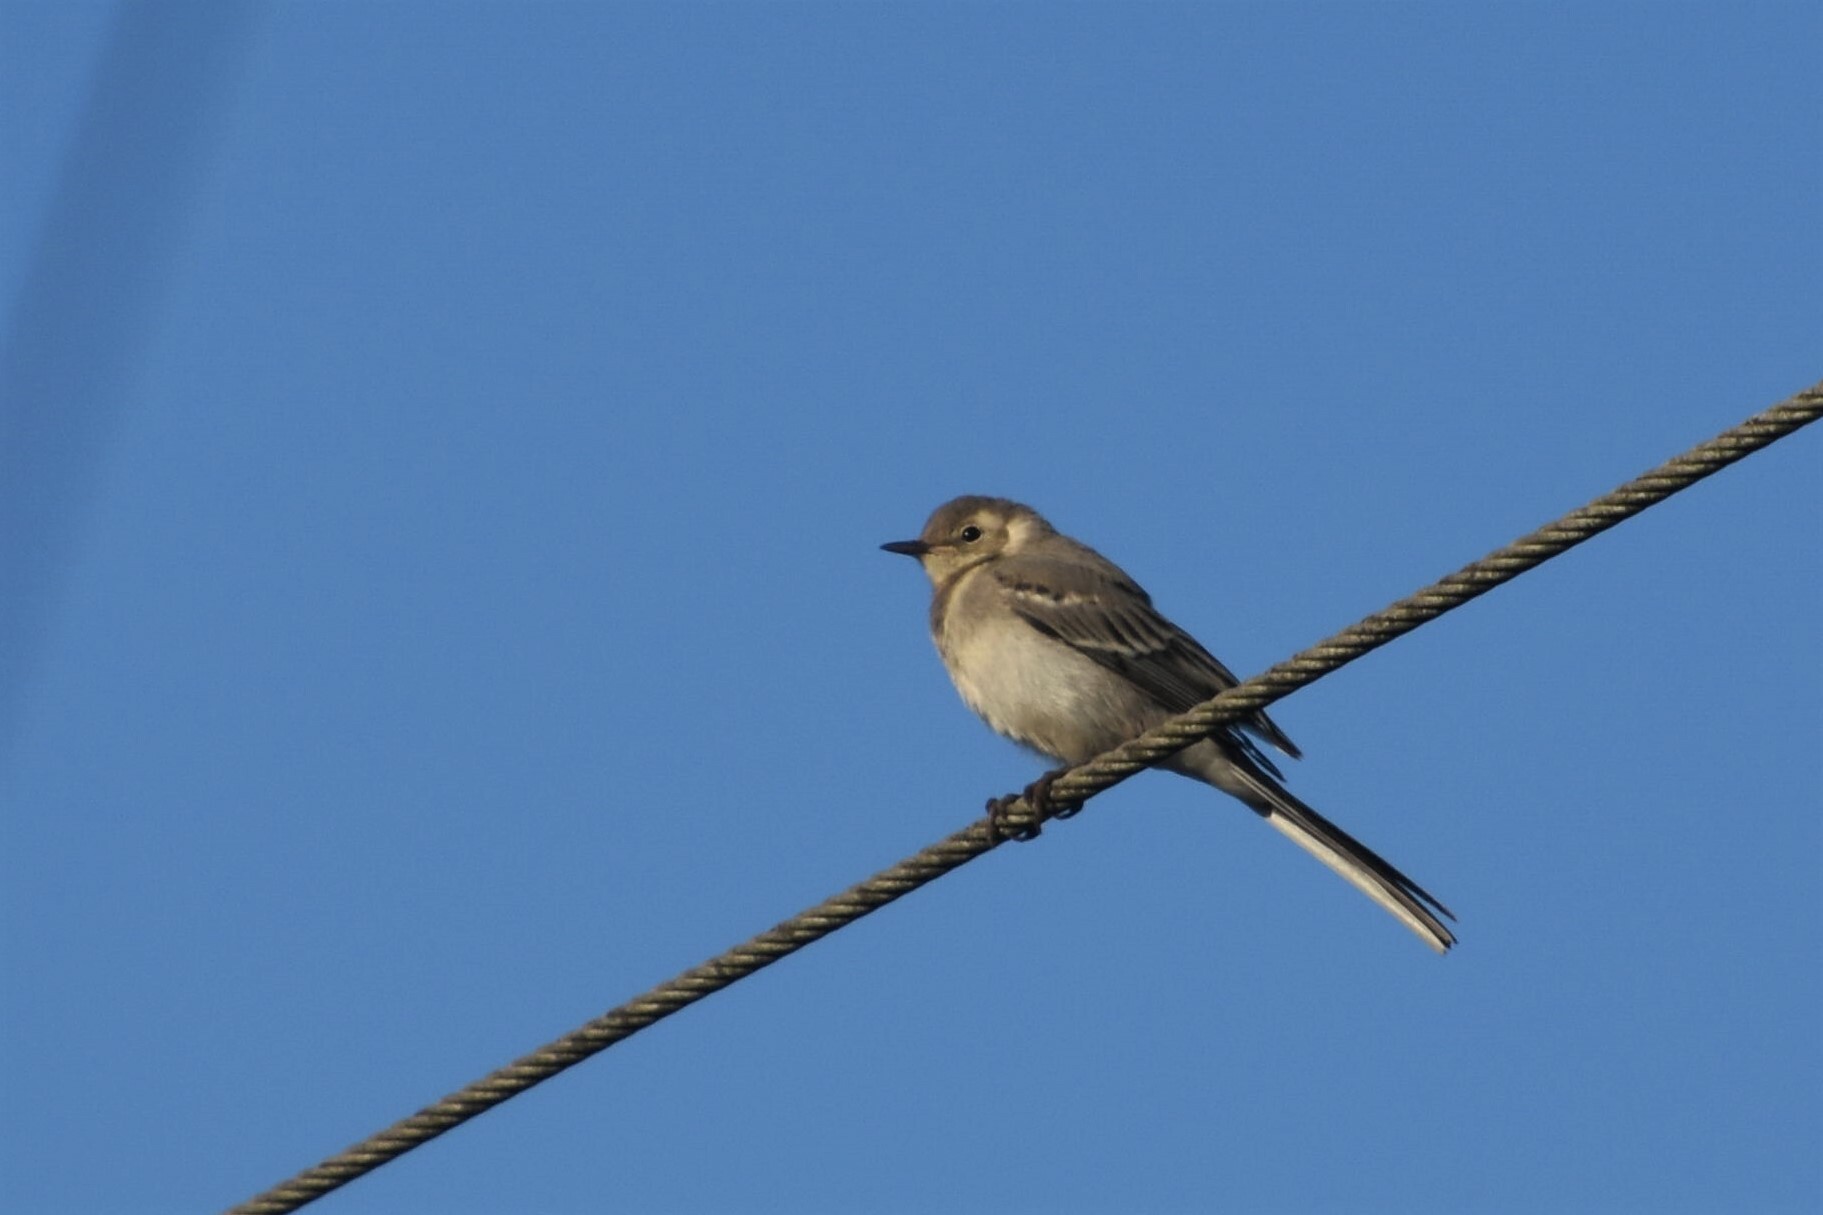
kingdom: Animalia
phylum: Chordata
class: Aves
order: Passeriformes
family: Motacillidae
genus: Motacilla
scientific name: Motacilla alba
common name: White wagtail
